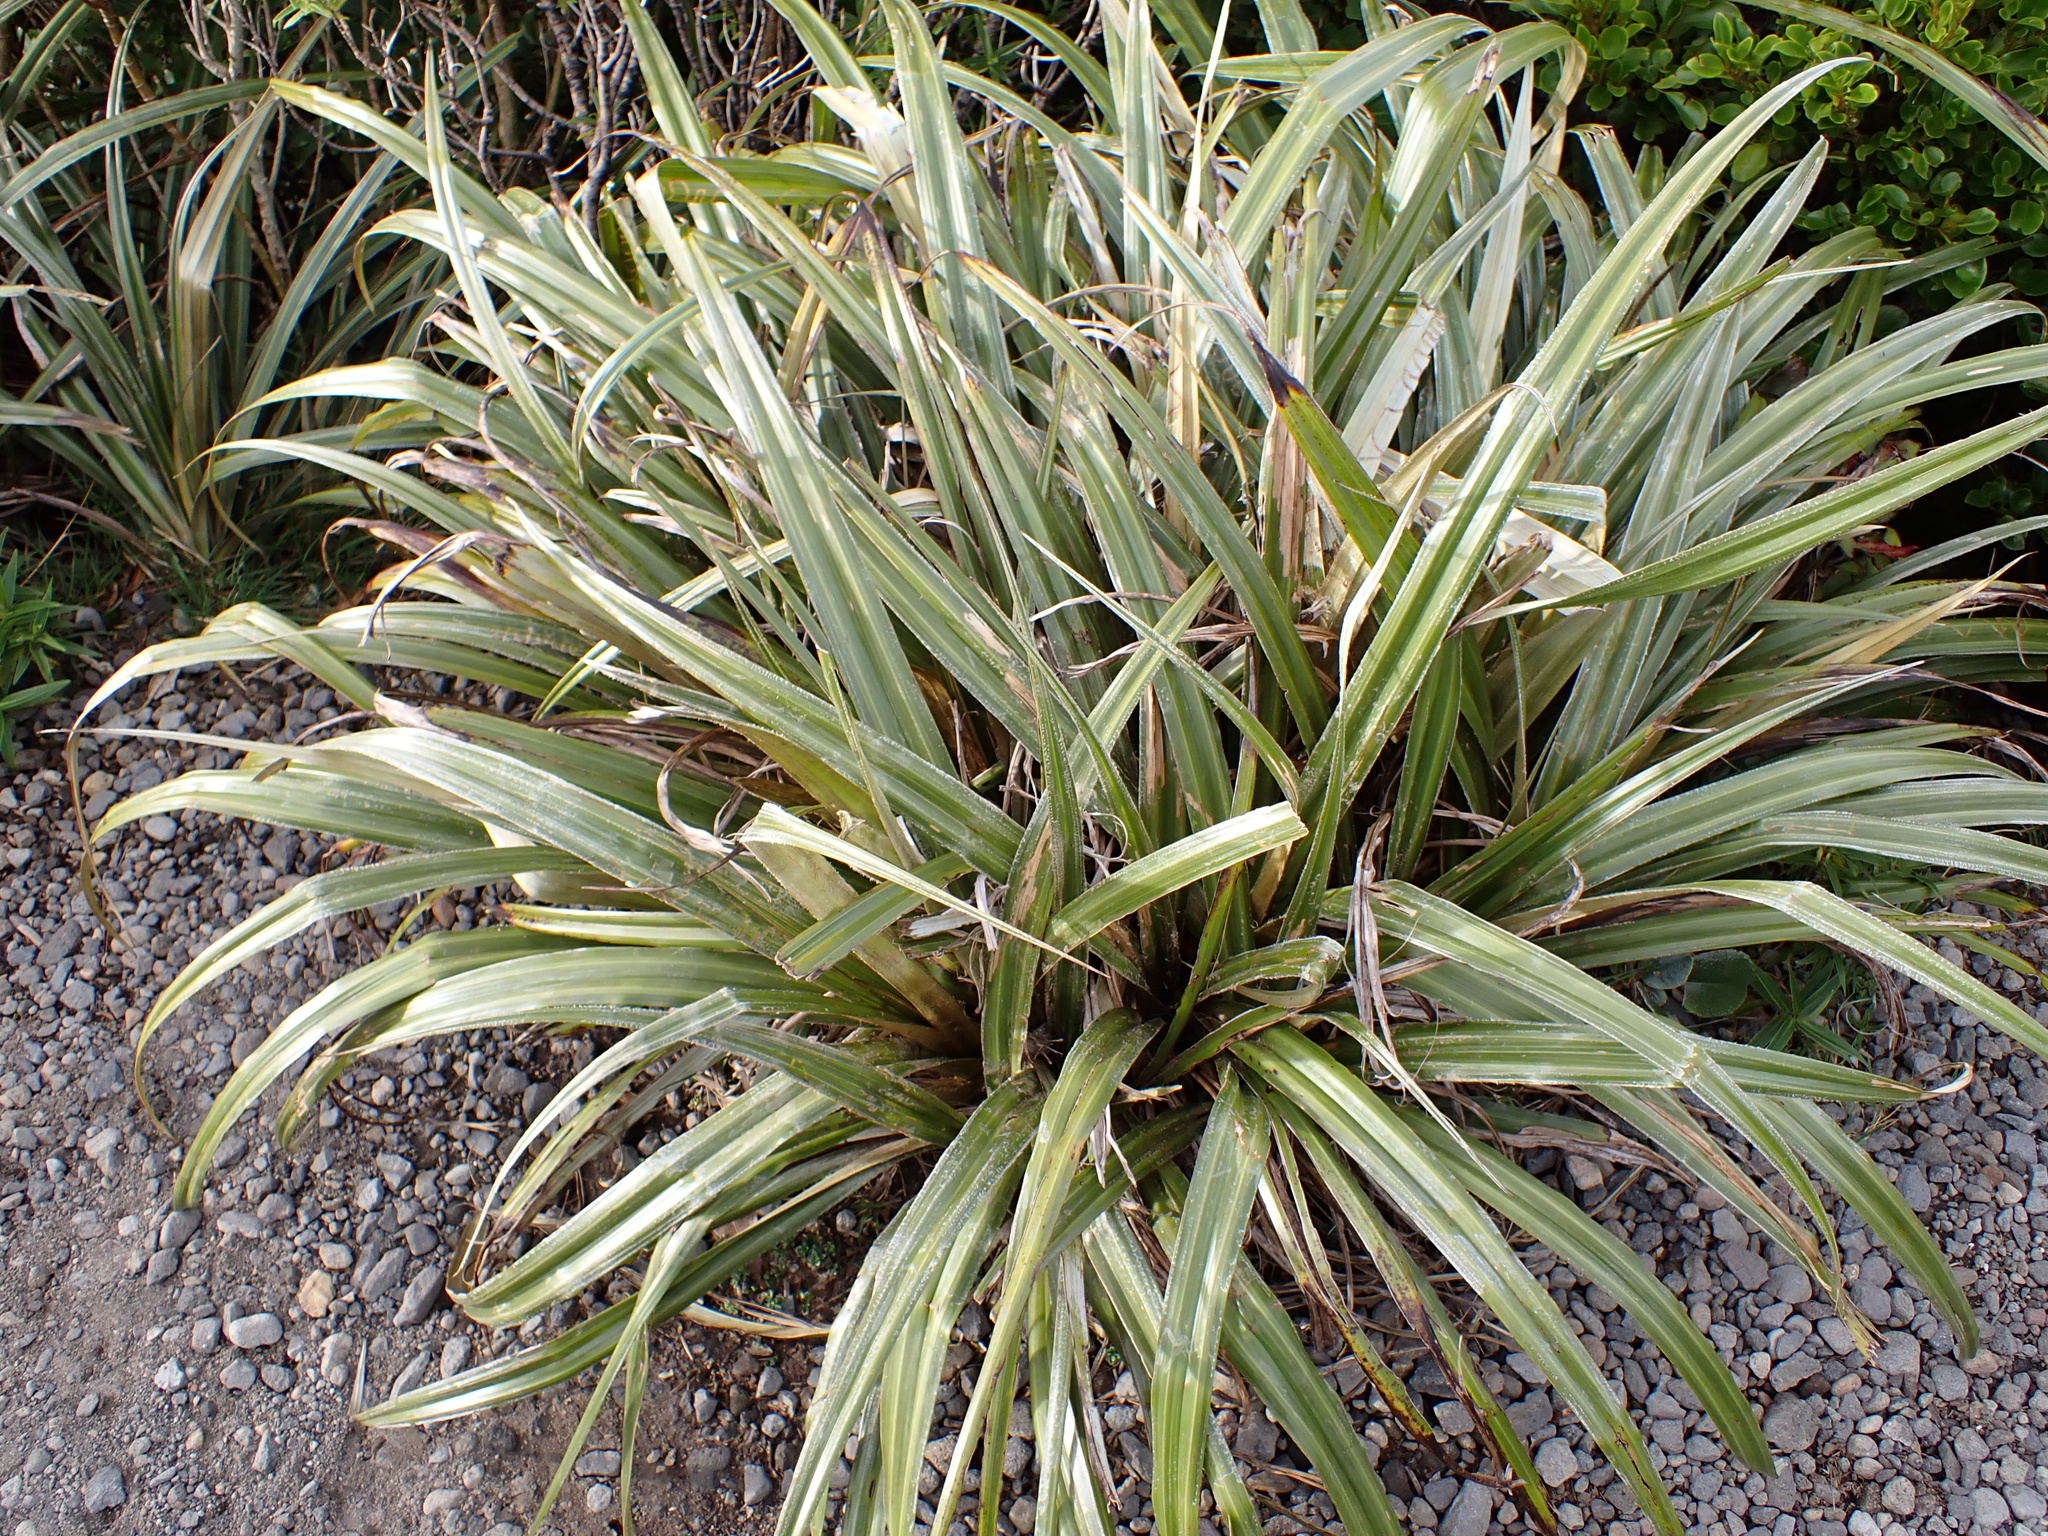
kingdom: Plantae
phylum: Tracheophyta
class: Liliopsida
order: Asparagales
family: Asteliaceae
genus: Astelia
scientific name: Astelia nervosa
